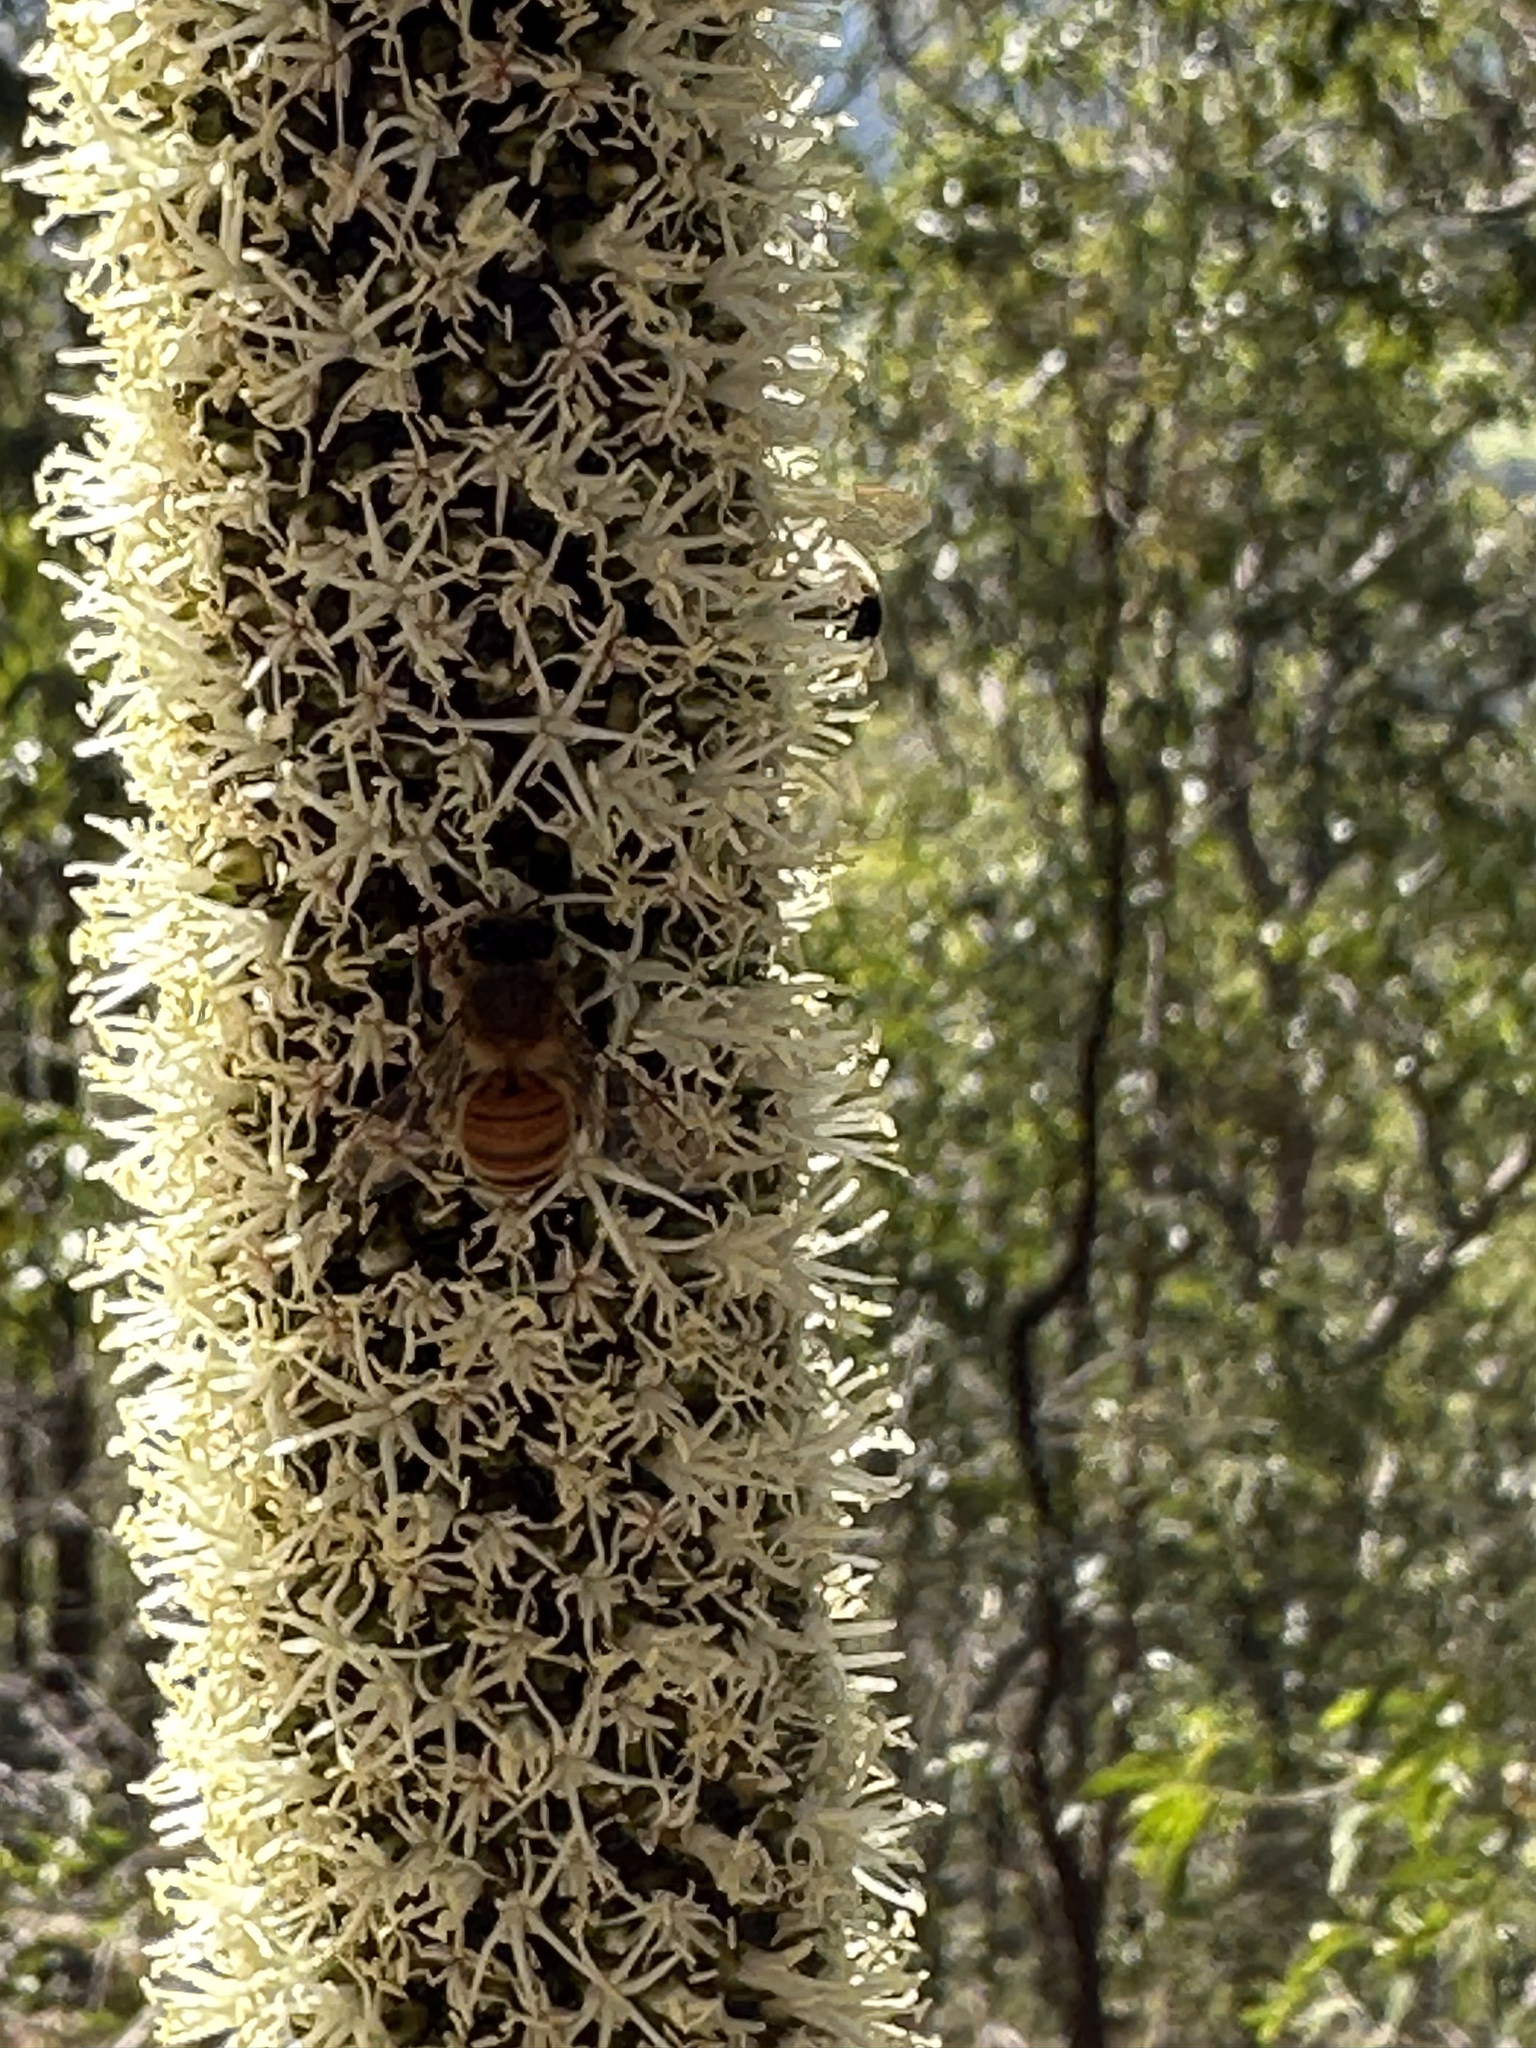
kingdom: Animalia
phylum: Arthropoda
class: Insecta
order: Hymenoptera
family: Apidae
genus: Apis
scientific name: Apis mellifera
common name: Honey bee
